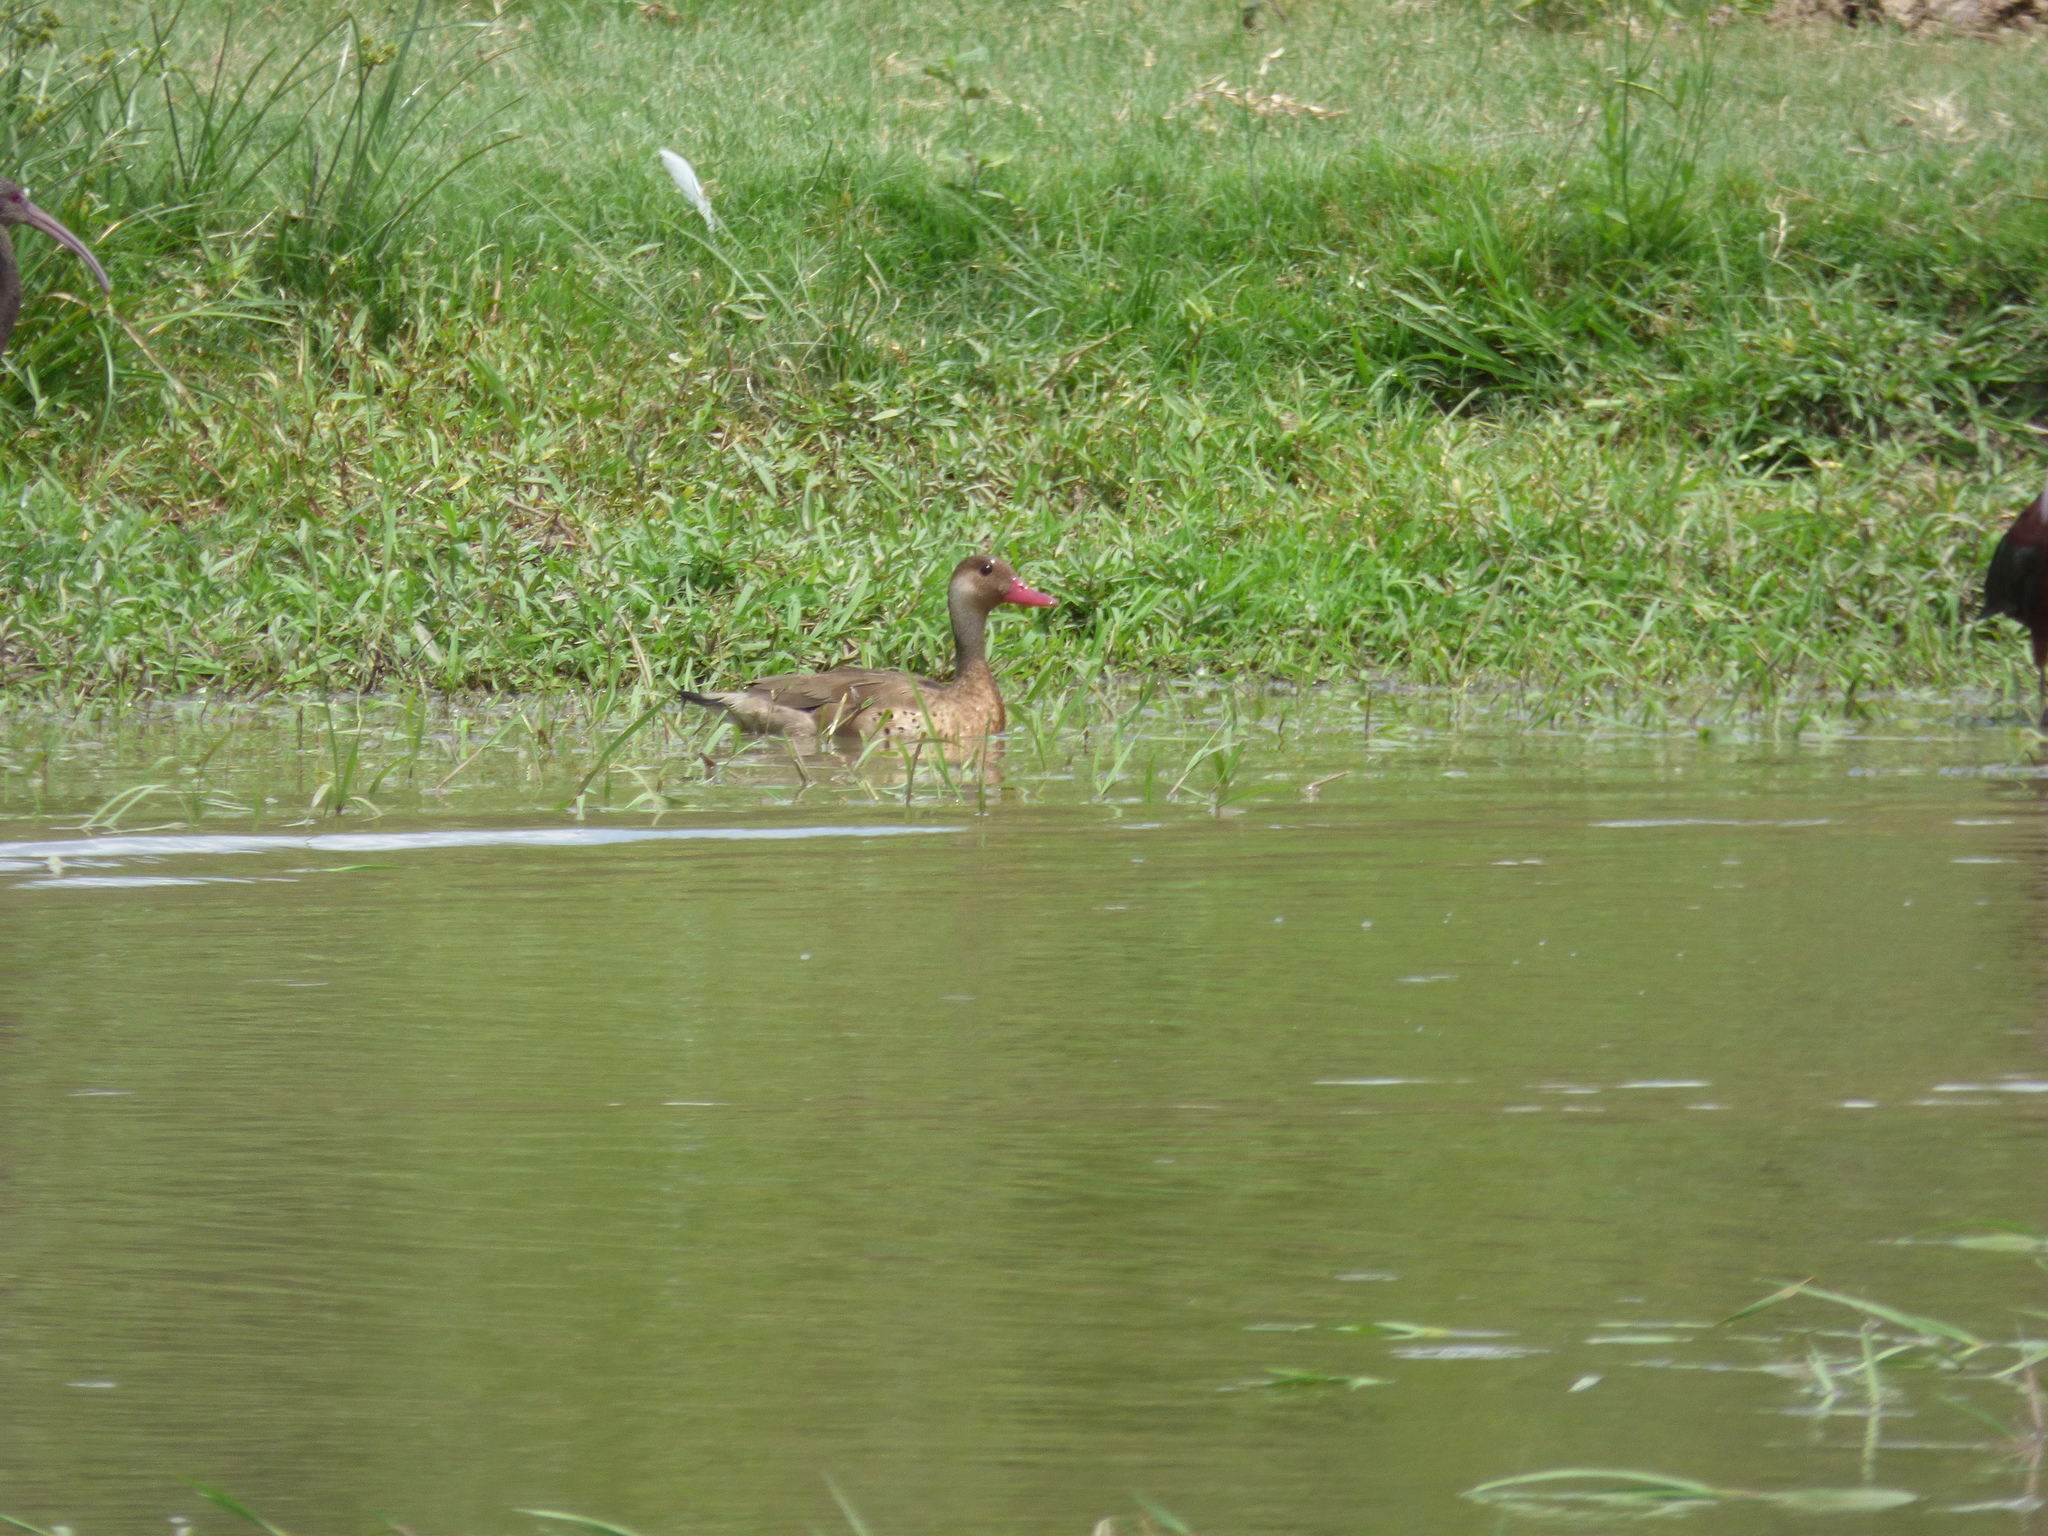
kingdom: Animalia
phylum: Chordata
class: Aves
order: Anseriformes
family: Anatidae
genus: Amazonetta
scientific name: Amazonetta brasiliensis
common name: Brazilian teal
